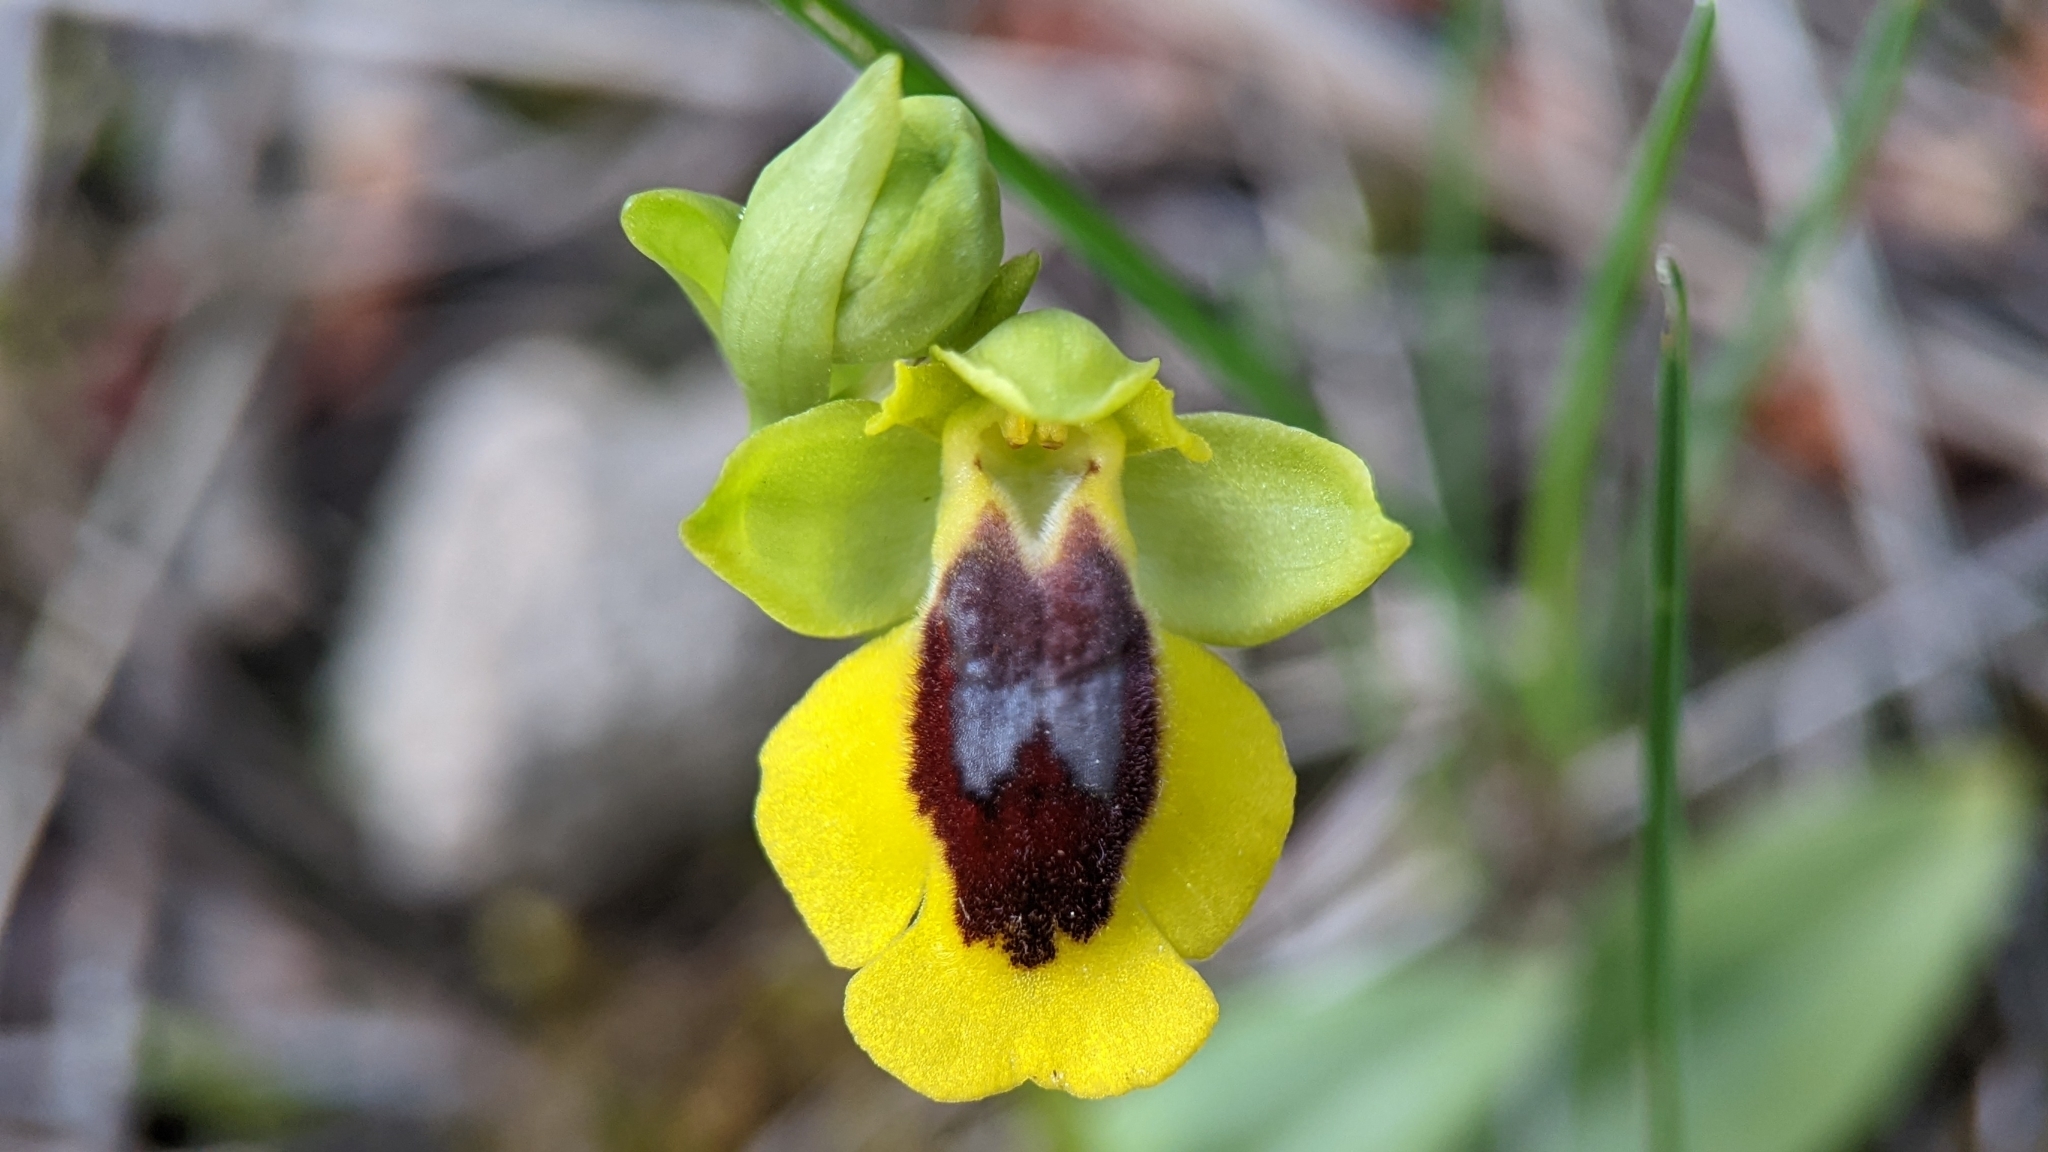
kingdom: Plantae
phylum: Tracheophyta
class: Liliopsida
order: Asparagales
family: Orchidaceae
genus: Ophrys
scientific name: Ophrys lutea
